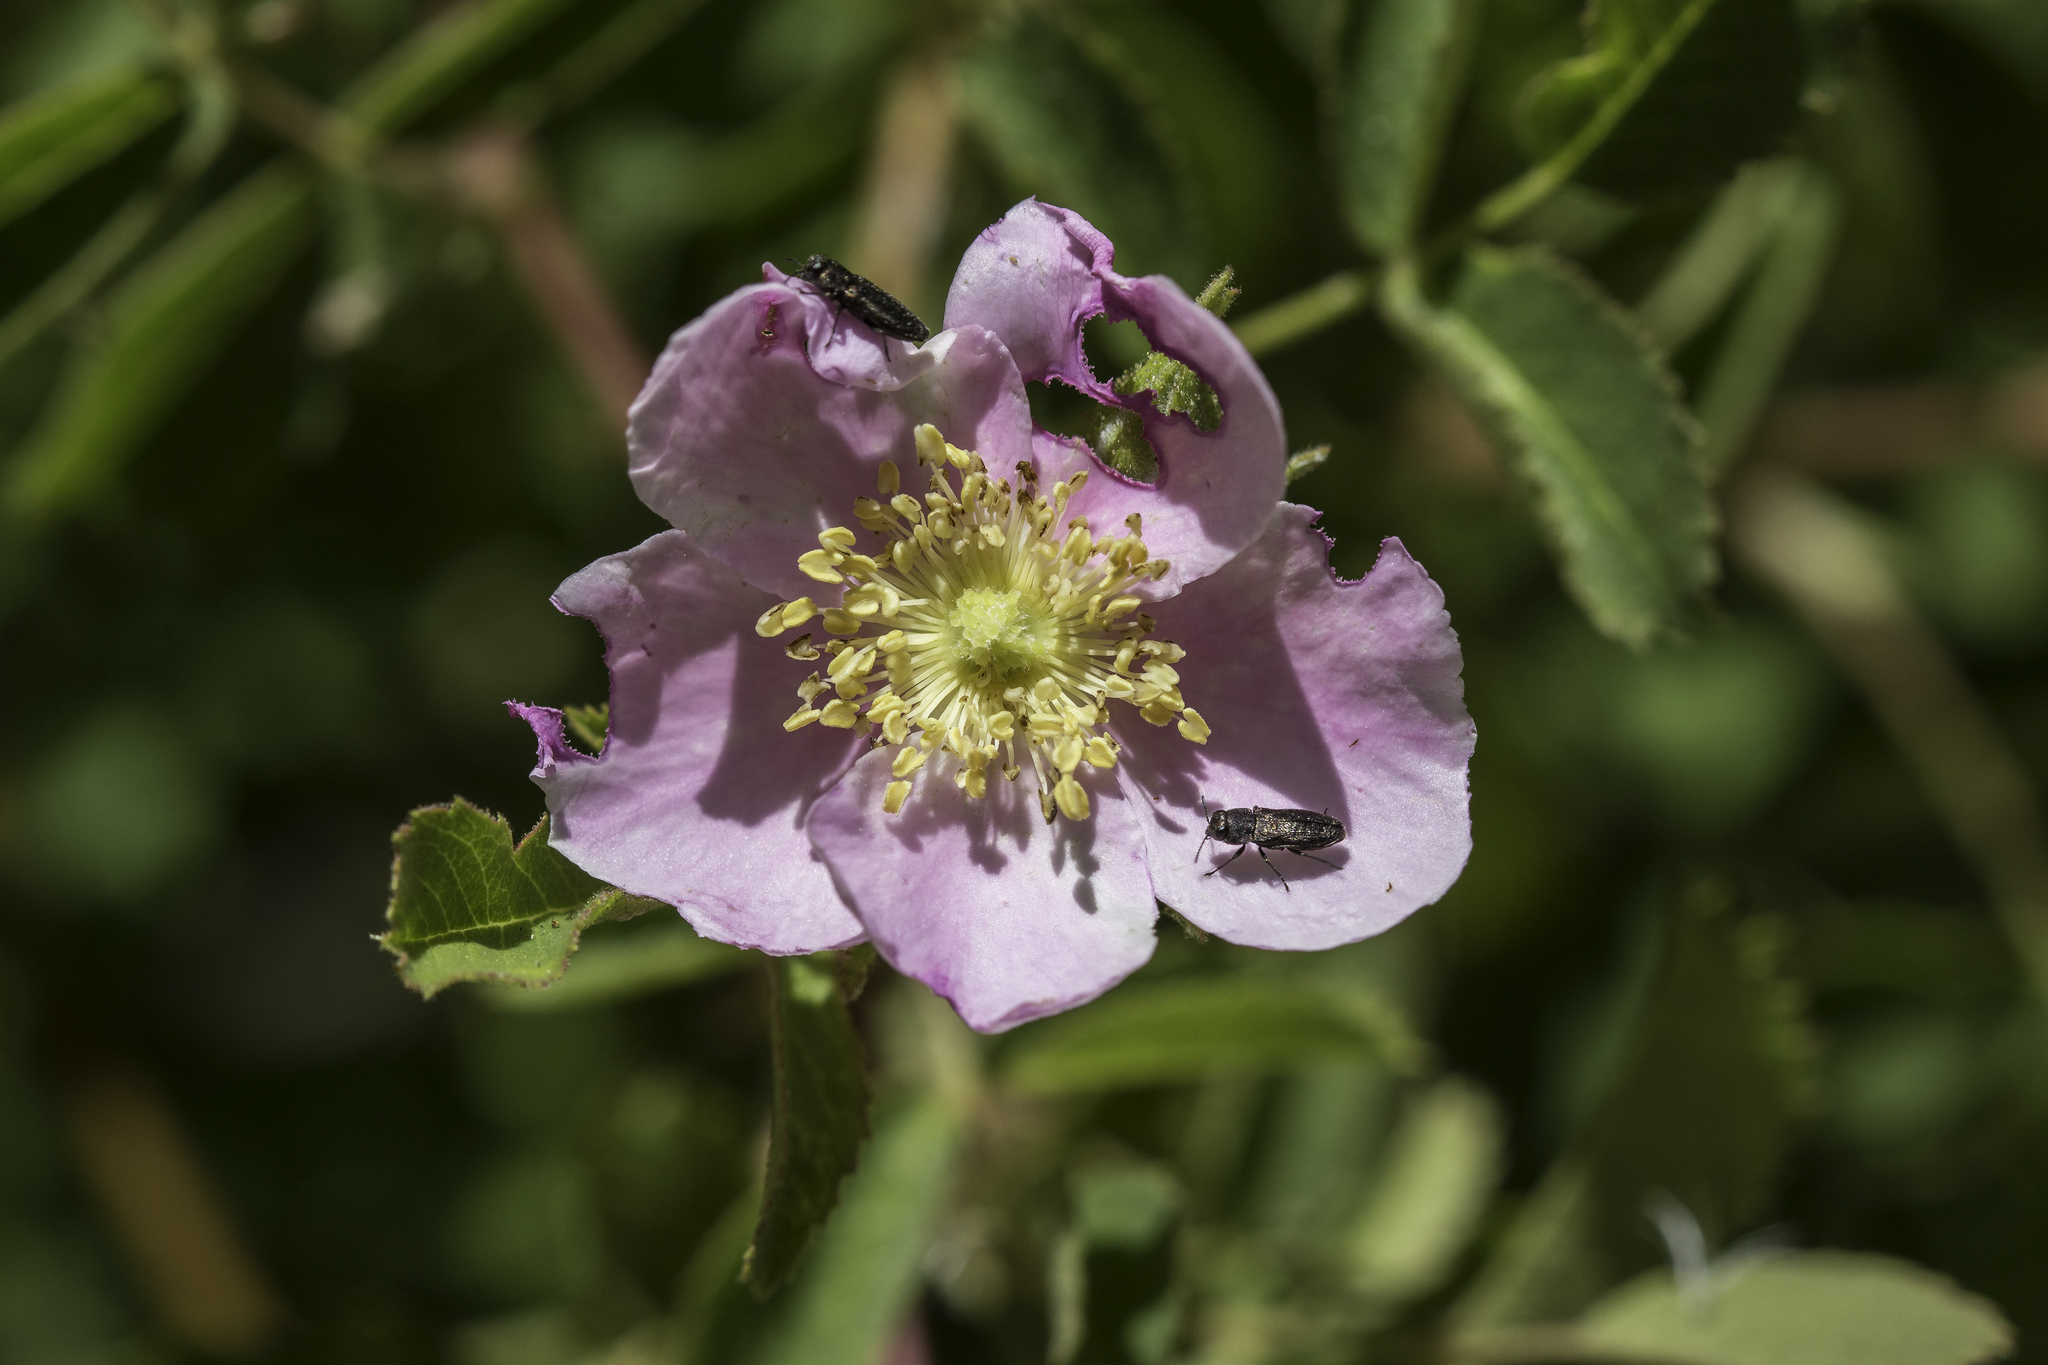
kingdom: Plantae
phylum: Tracheophyta
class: Magnoliopsida
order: Rosales
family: Rosaceae
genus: Rosa
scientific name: Rosa californica
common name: California rose
